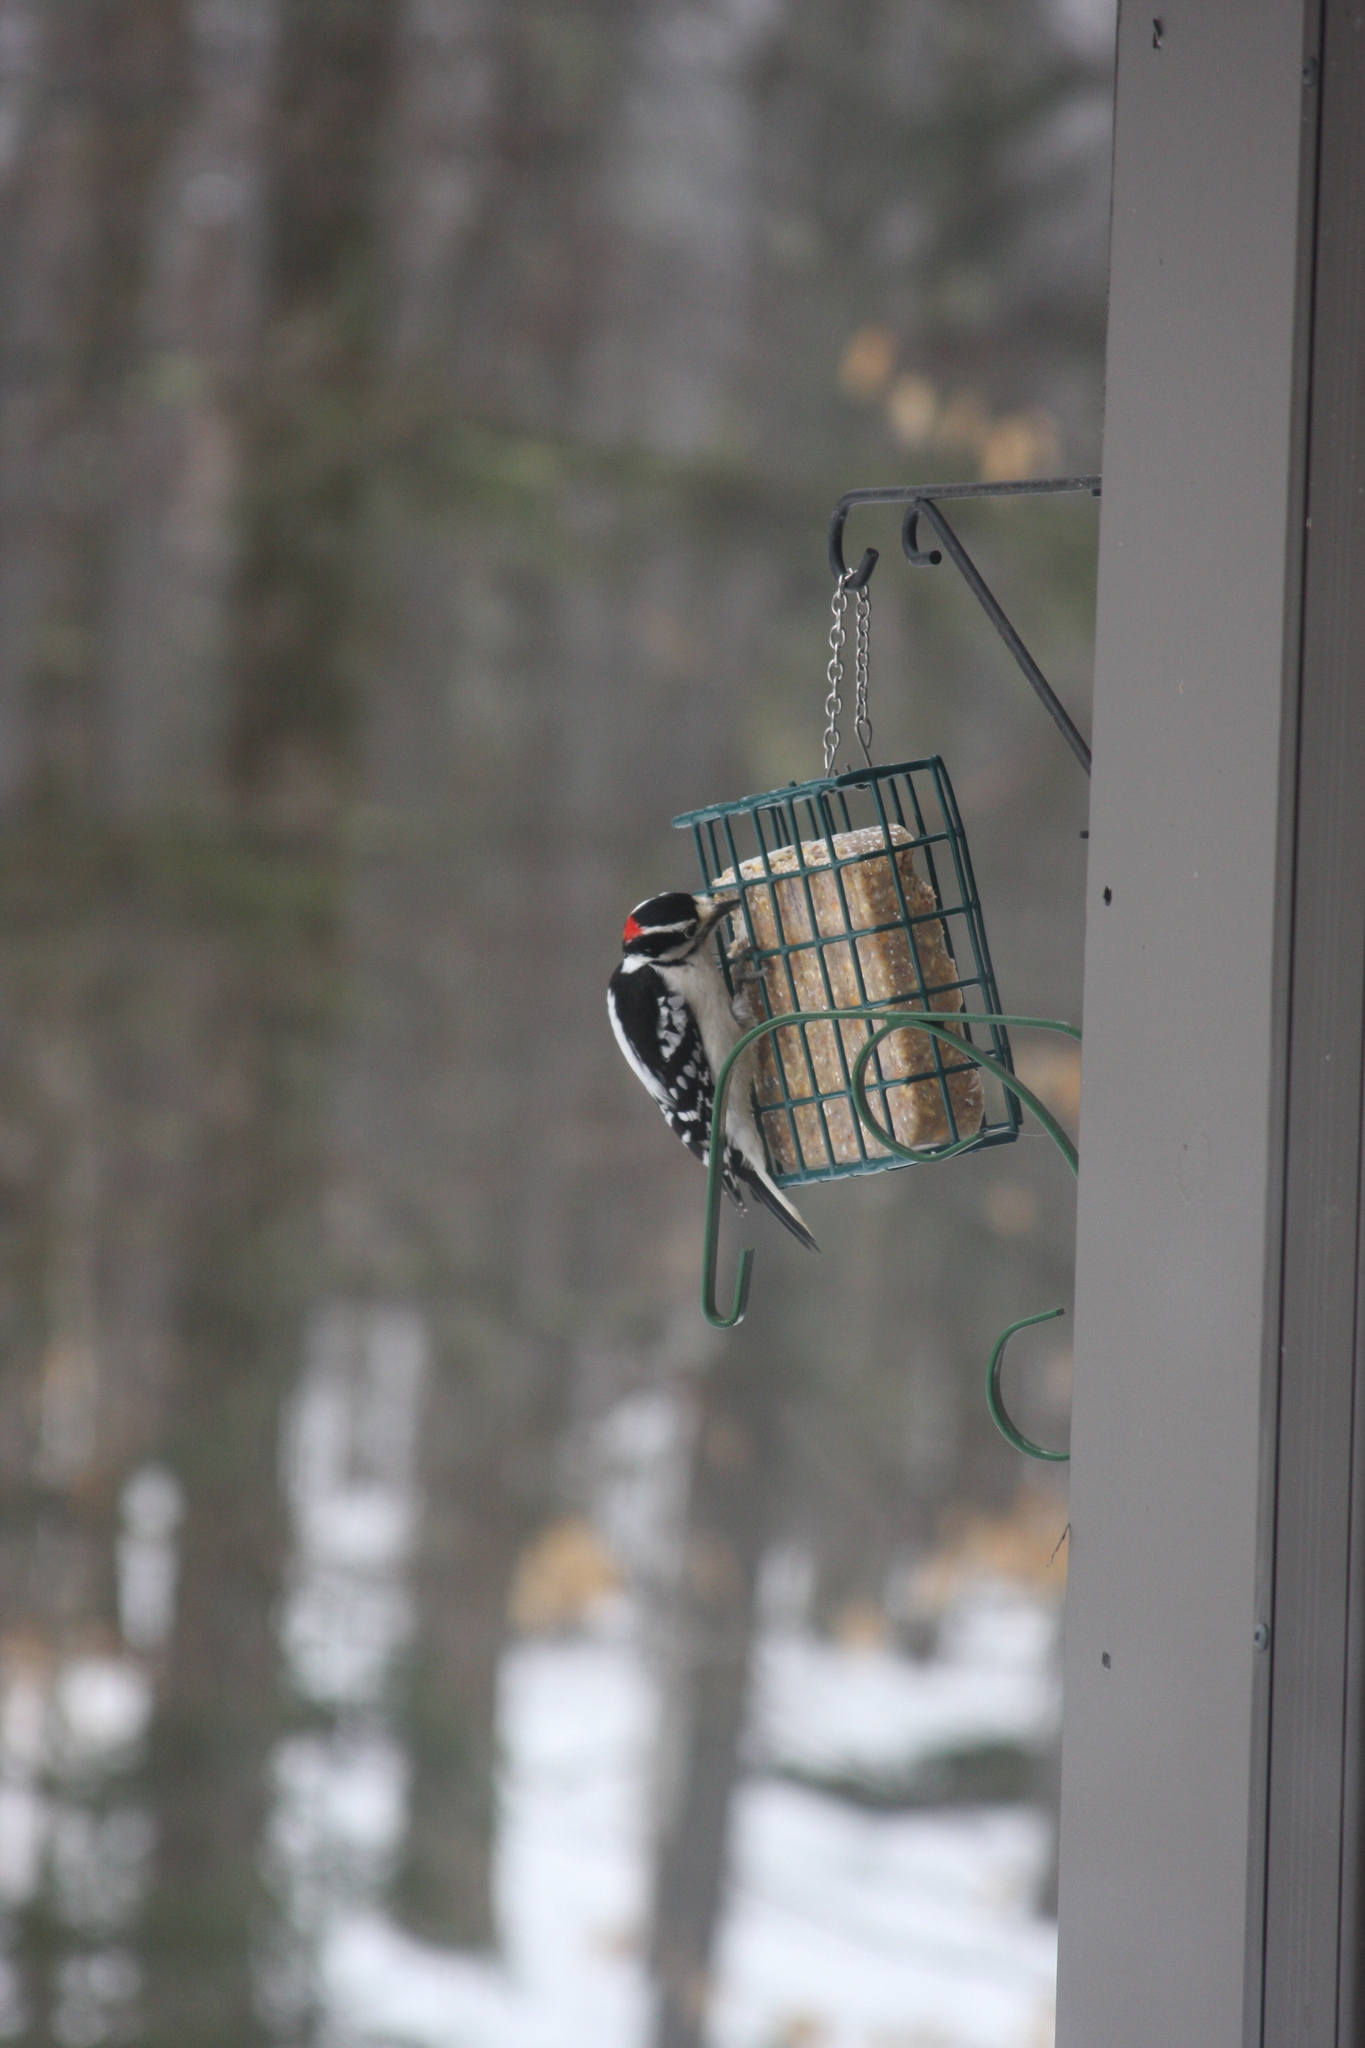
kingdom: Animalia
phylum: Chordata
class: Aves
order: Piciformes
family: Picidae
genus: Dryobates
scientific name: Dryobates pubescens
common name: Downy woodpecker
